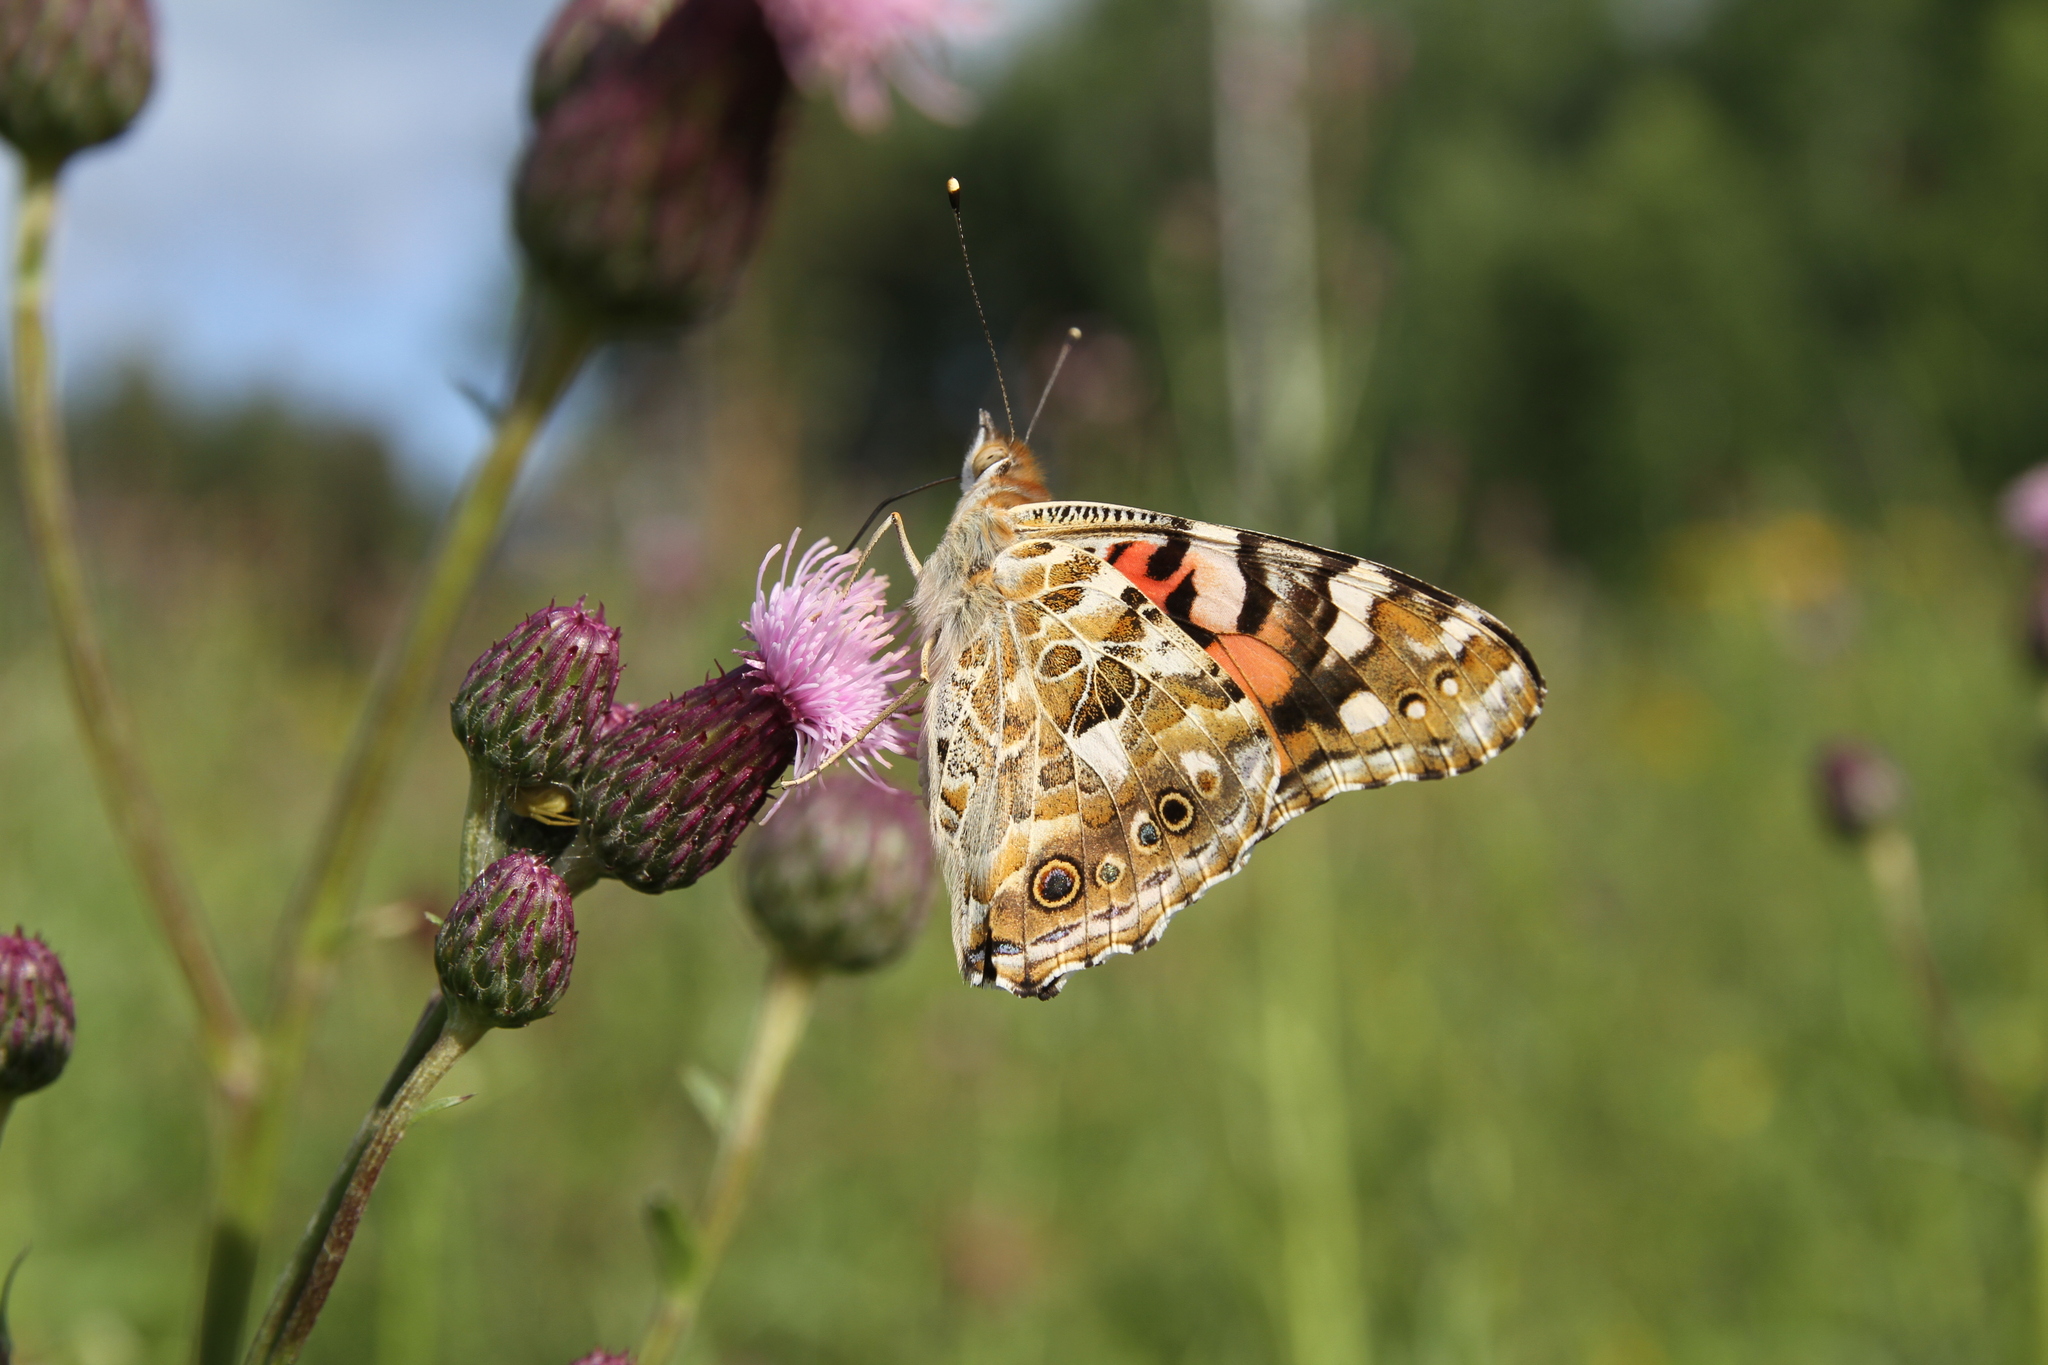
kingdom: Animalia
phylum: Arthropoda
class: Insecta
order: Lepidoptera
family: Nymphalidae
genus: Vanessa
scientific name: Vanessa cardui
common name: Painted lady
